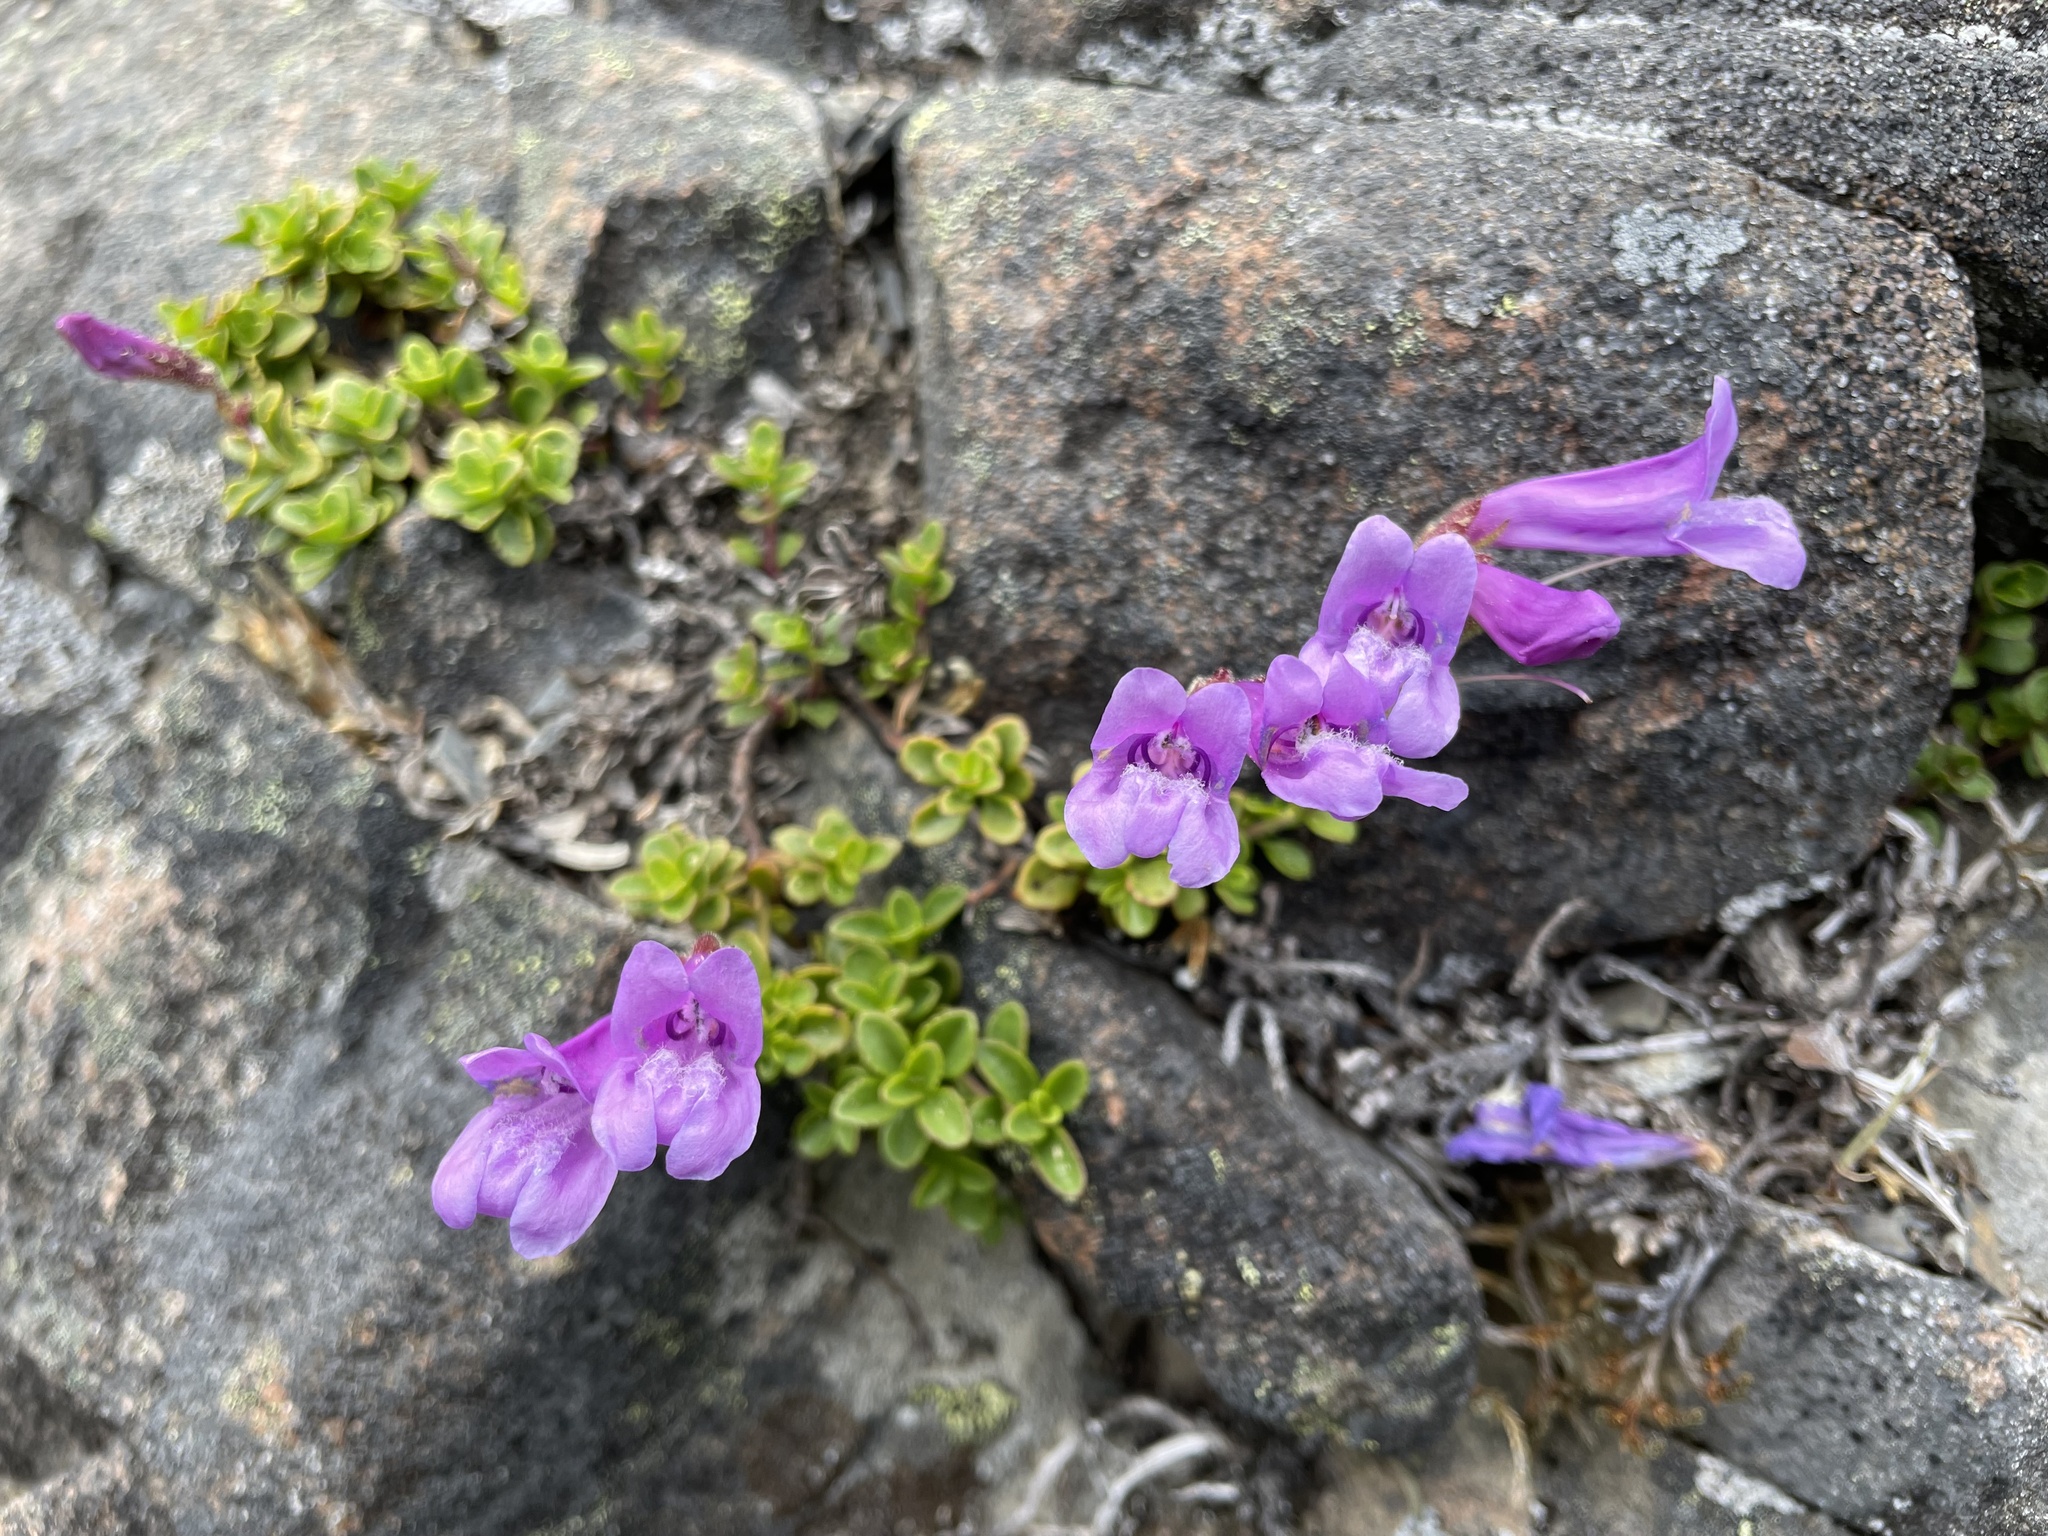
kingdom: Plantae
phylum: Tracheophyta
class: Magnoliopsida
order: Lamiales
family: Plantaginaceae
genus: Penstemon
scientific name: Penstemon davidsonii
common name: Davidson's penstemon
